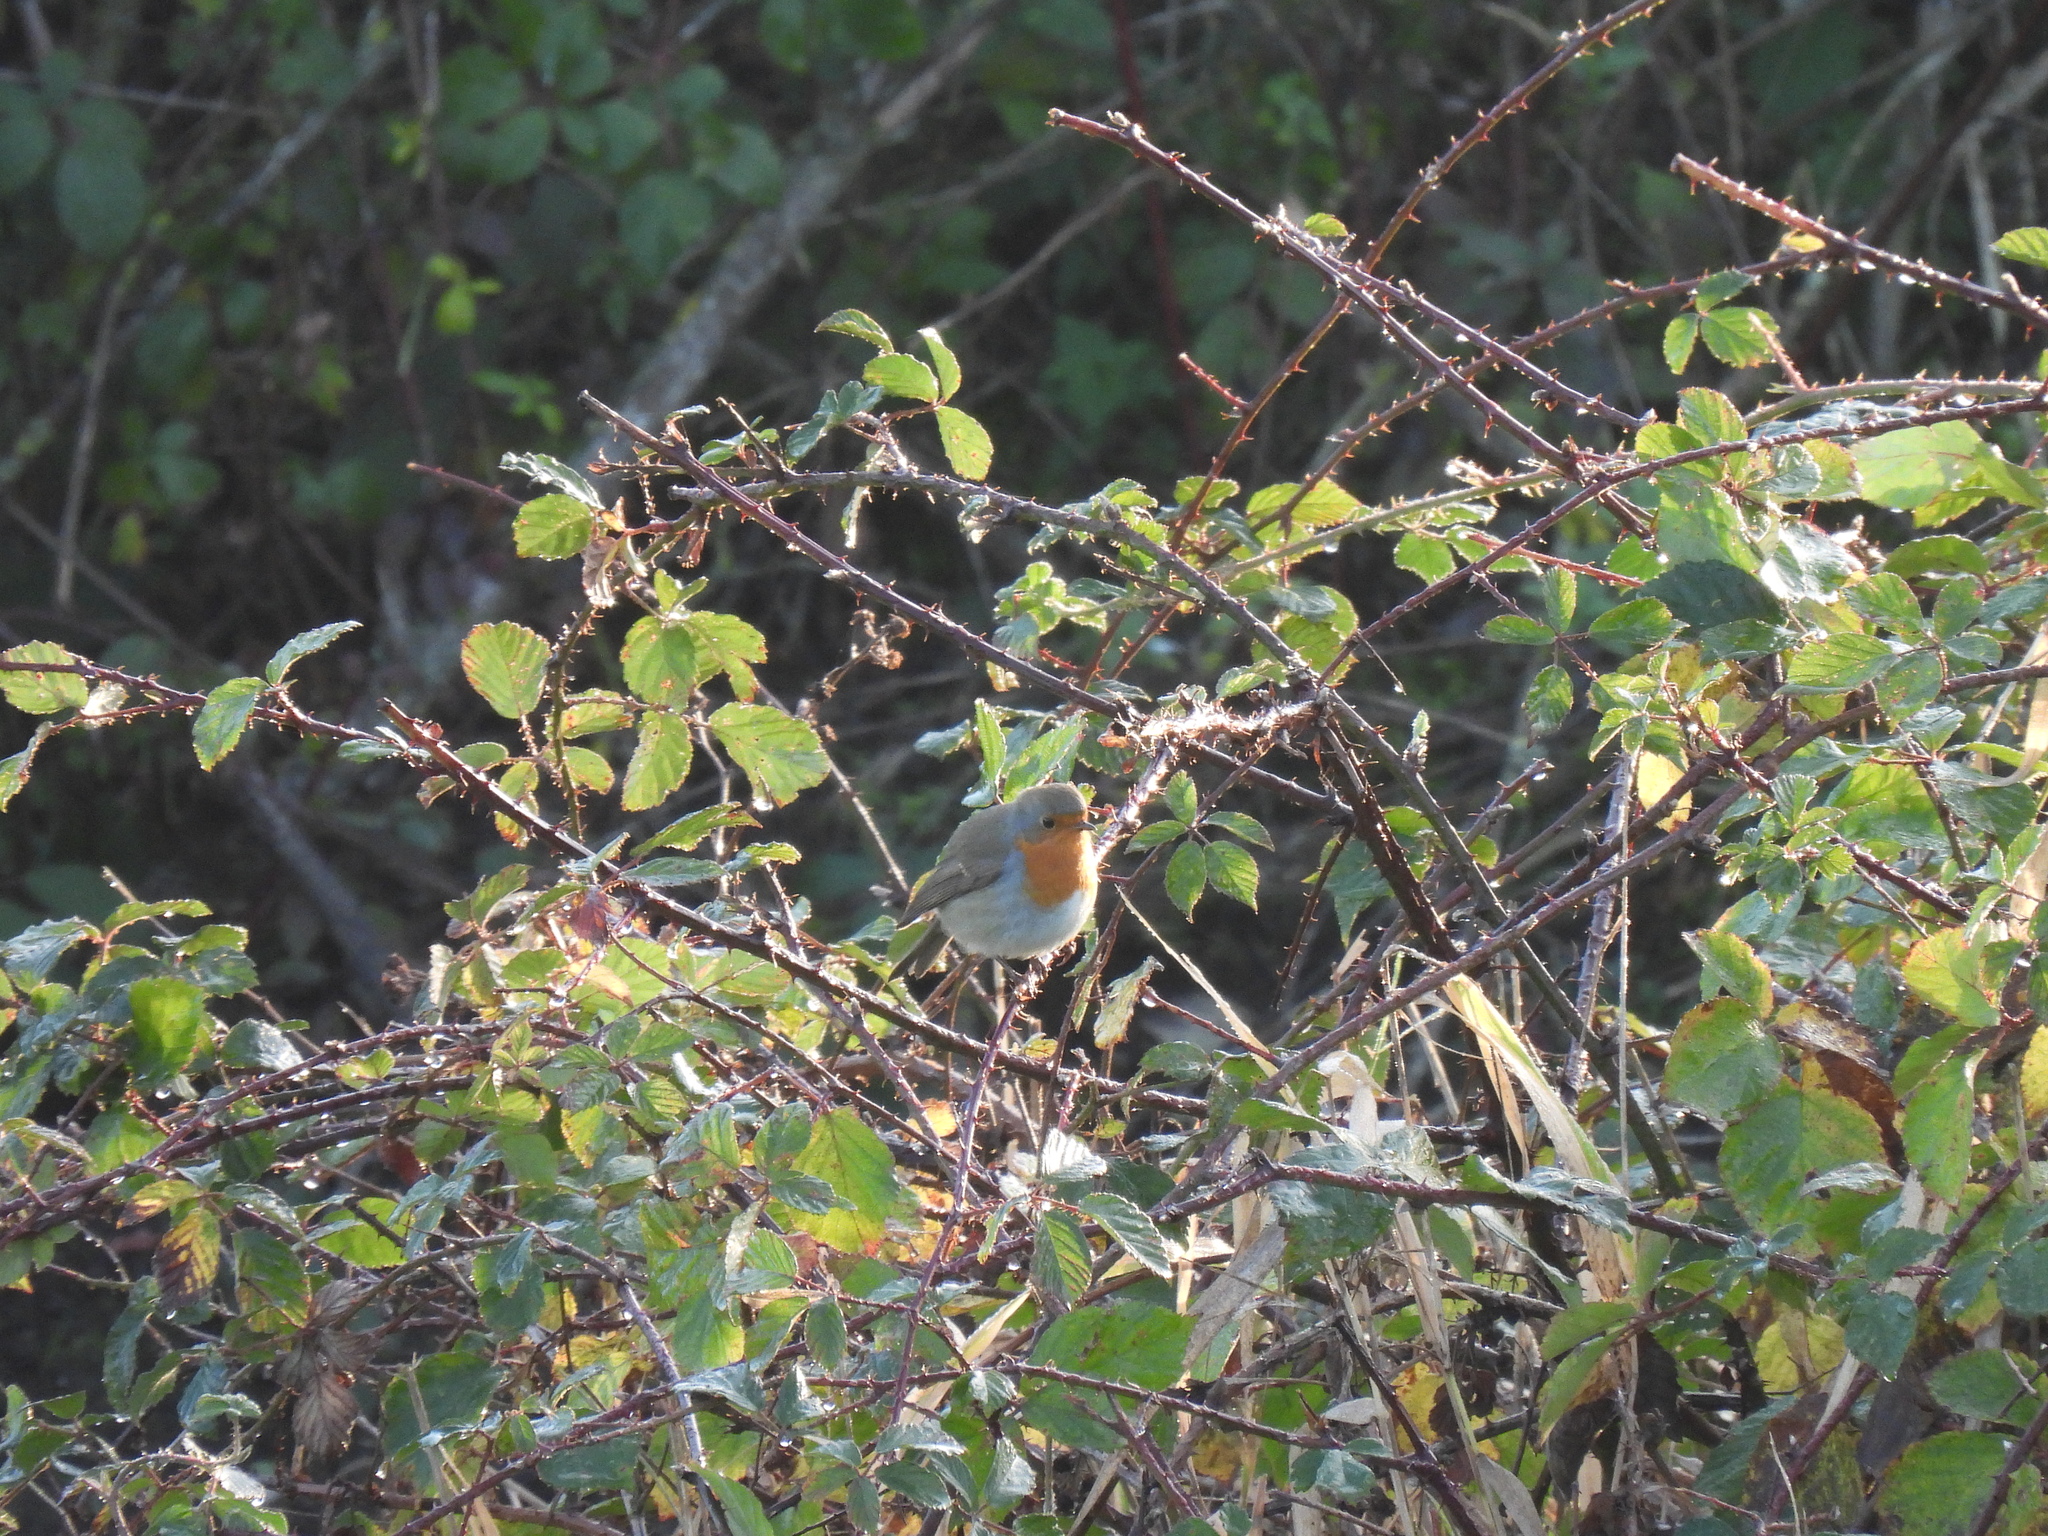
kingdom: Animalia
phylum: Chordata
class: Aves
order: Passeriformes
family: Muscicapidae
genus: Erithacus
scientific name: Erithacus rubecula
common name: European robin
